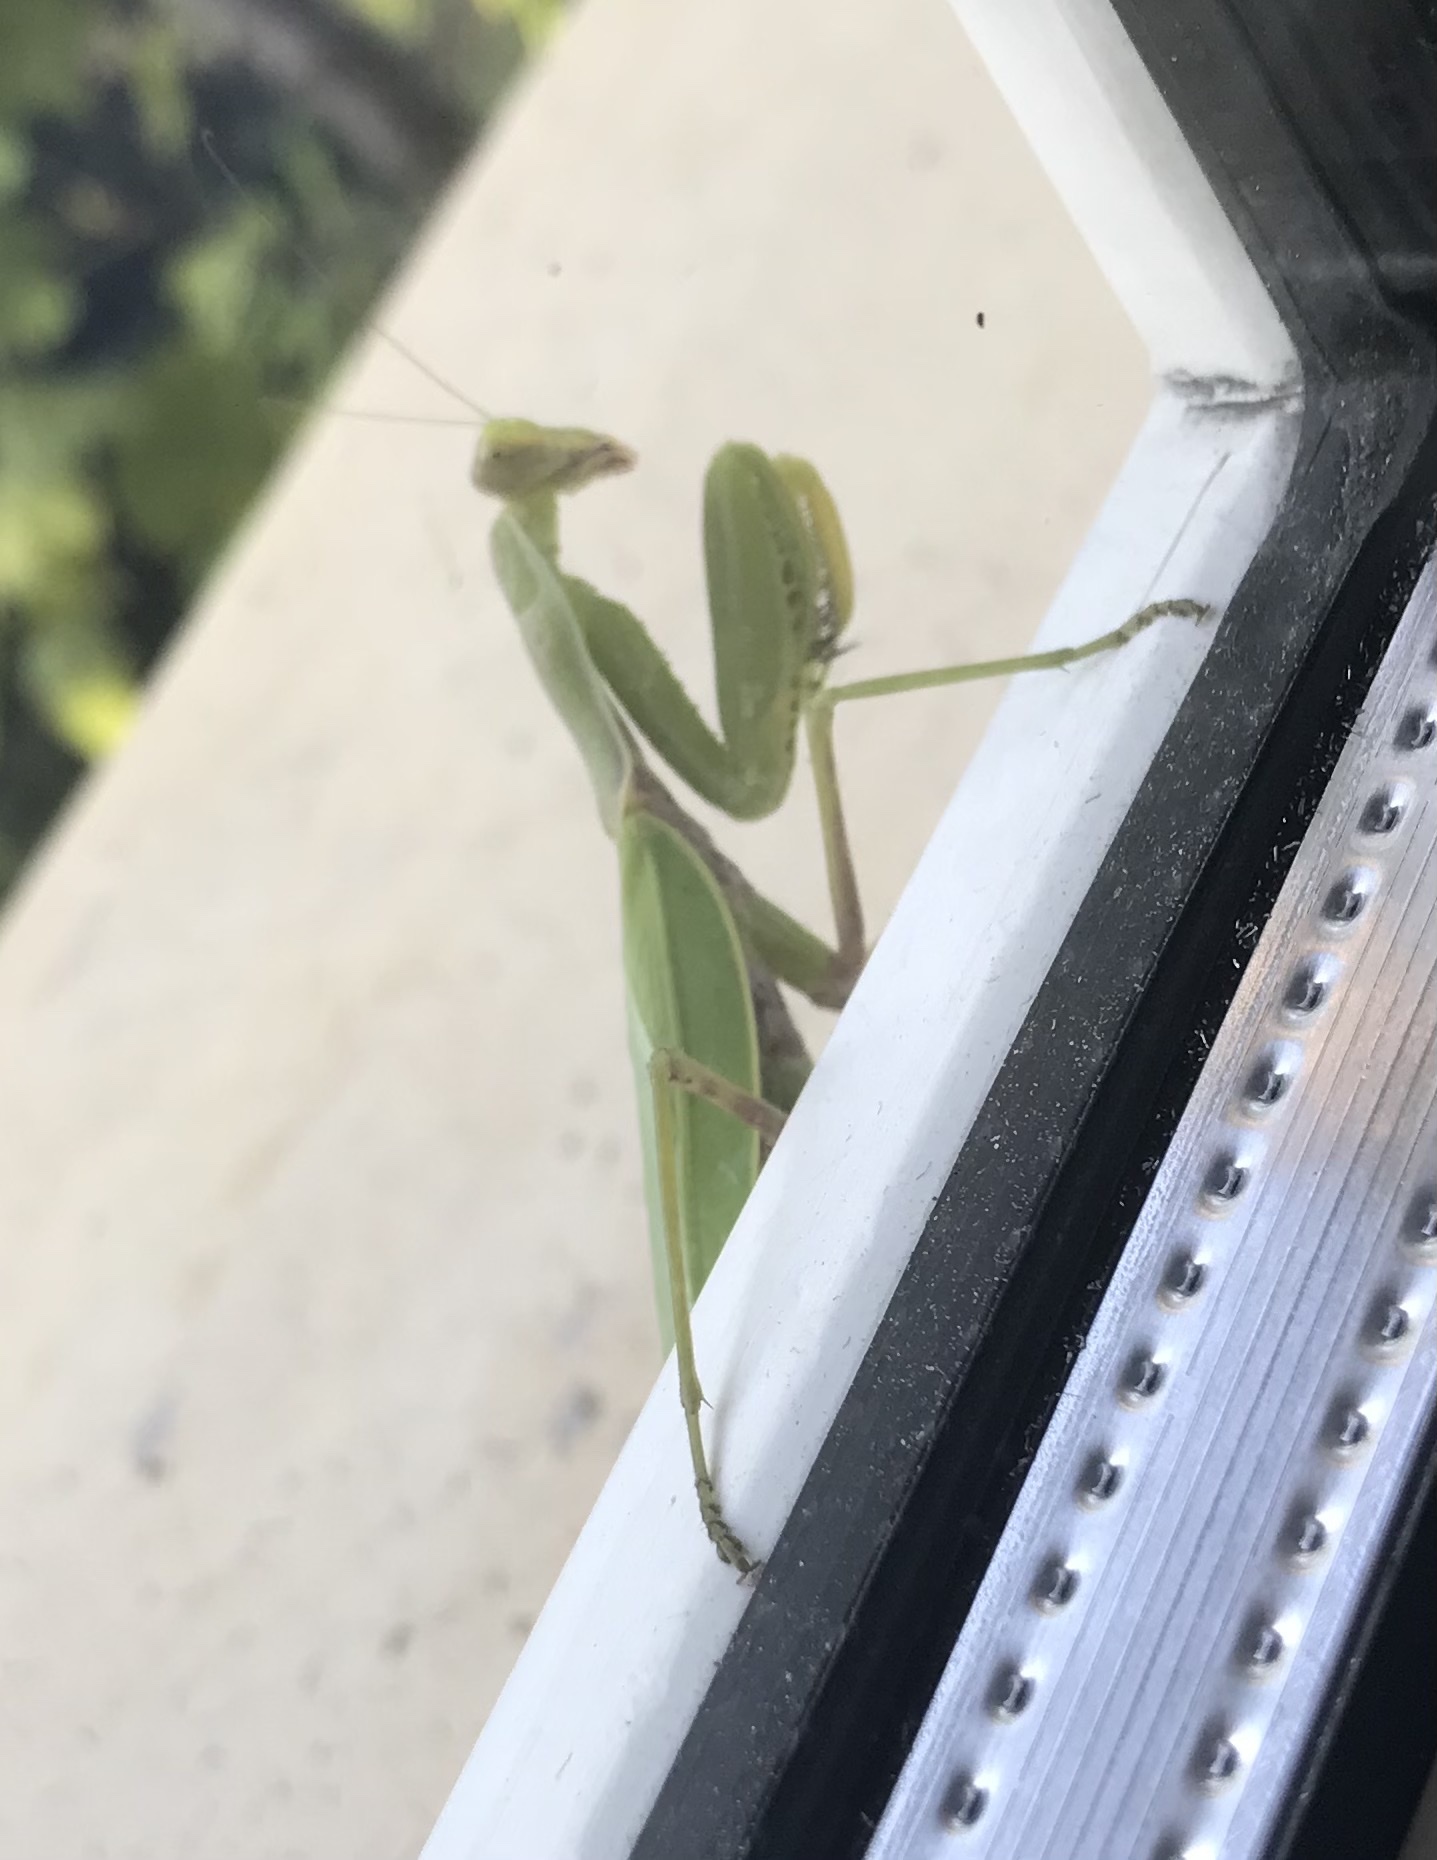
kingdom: Animalia
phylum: Arthropoda
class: Insecta
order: Mantodea
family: Mantidae
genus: Hierodula
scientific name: Hierodula transcaucasica
